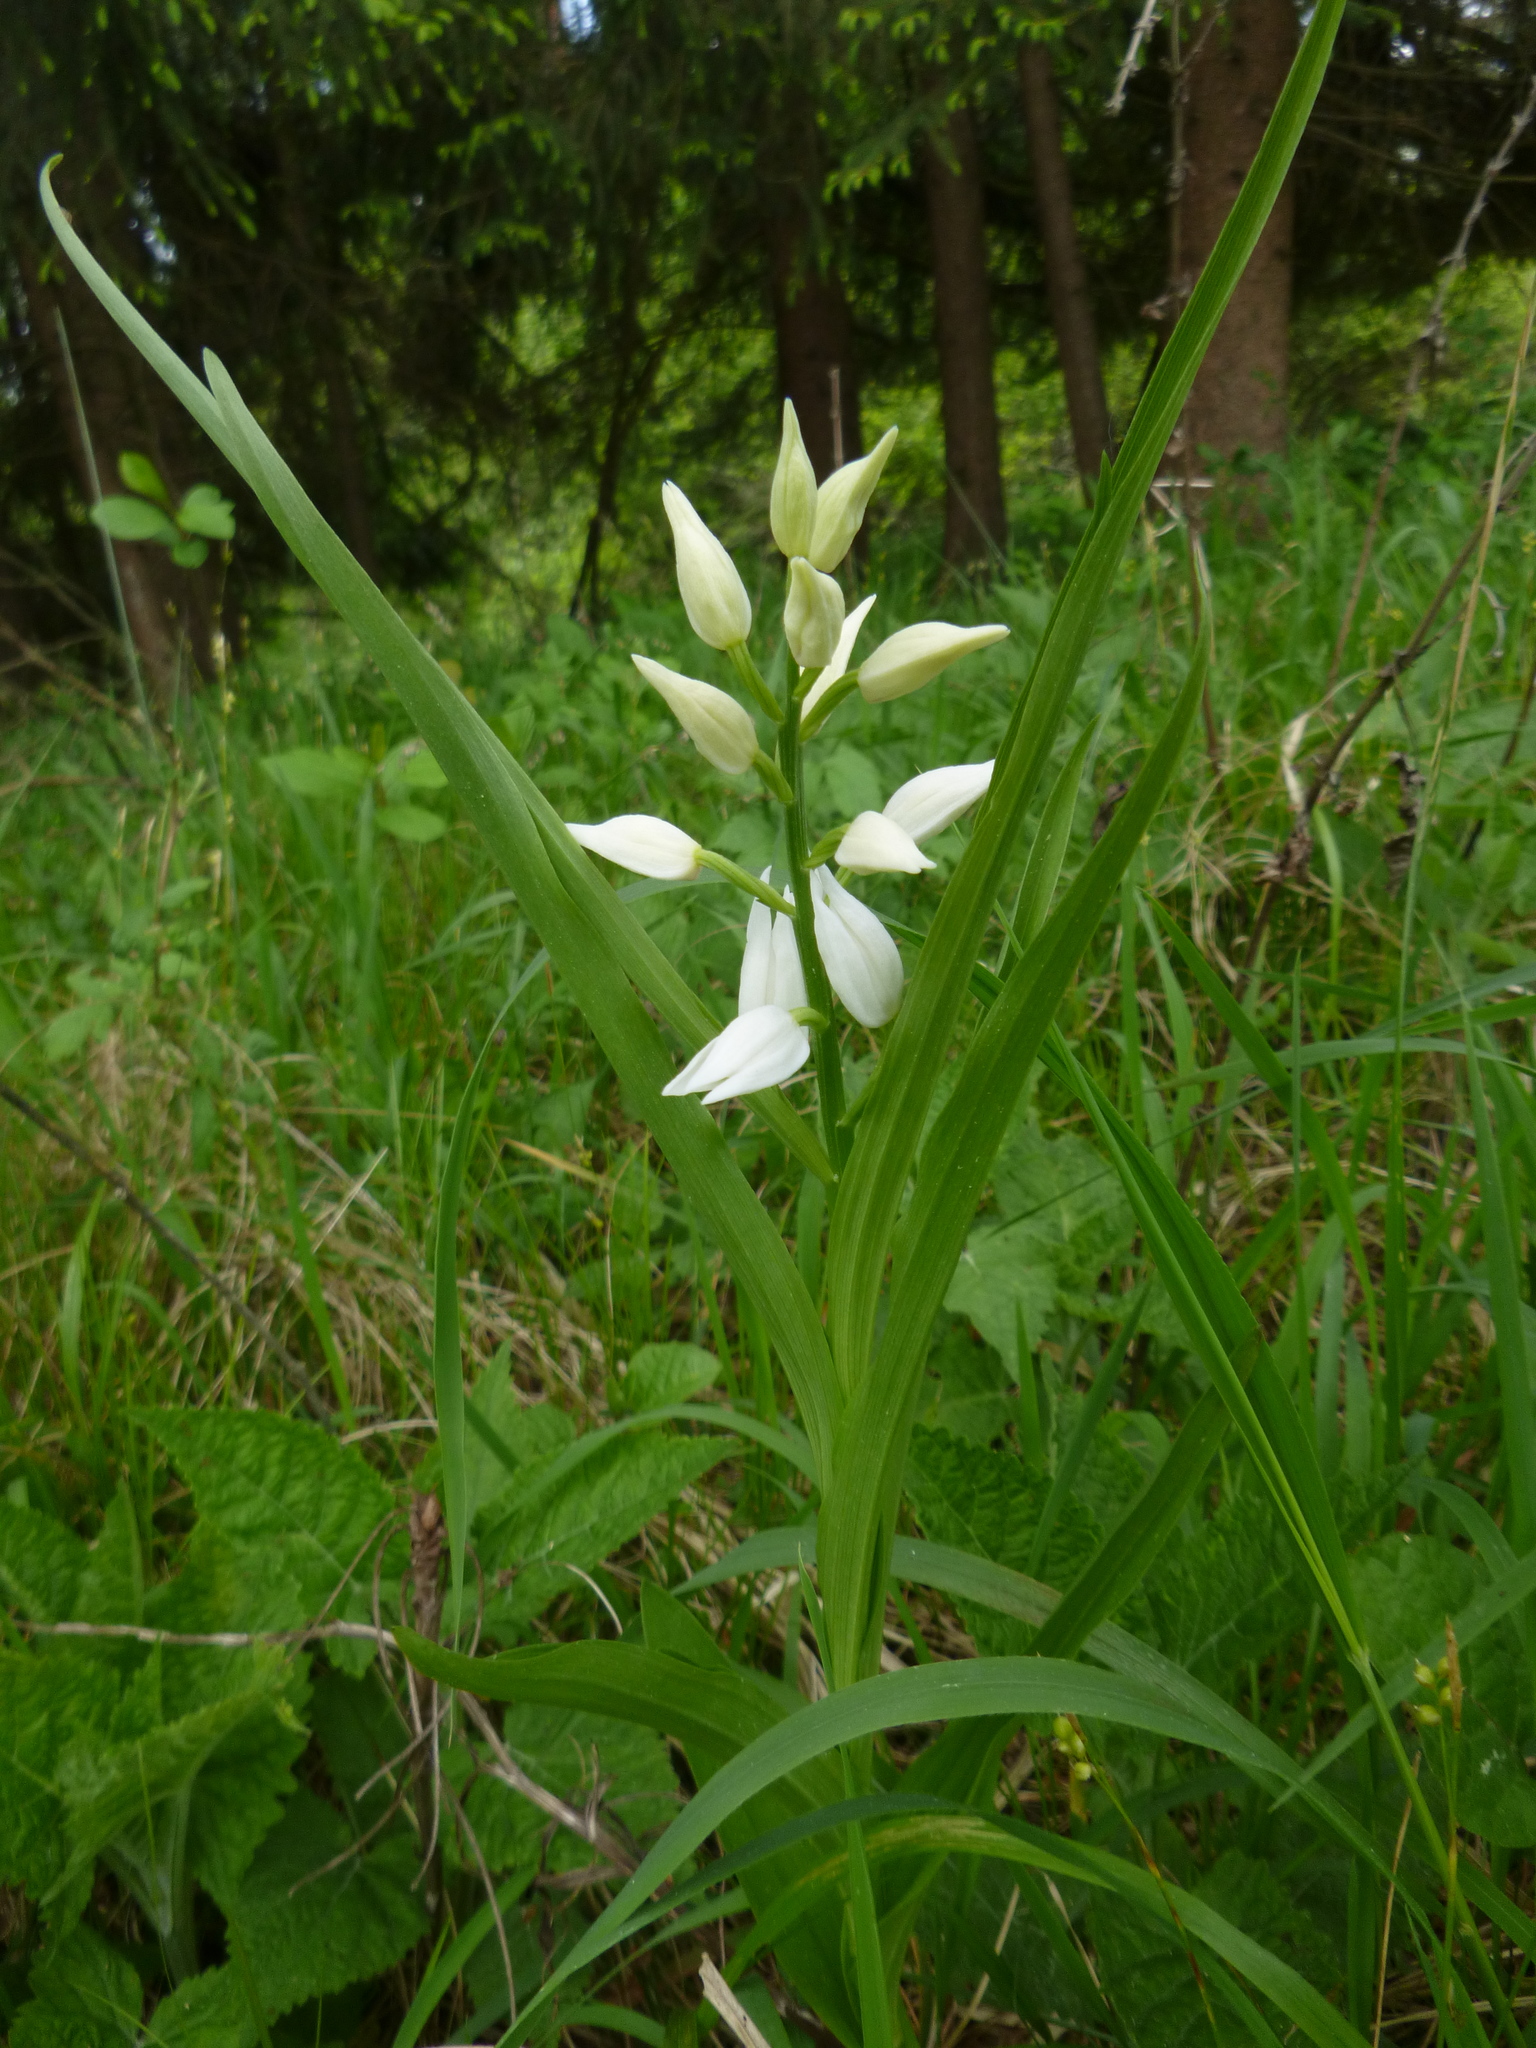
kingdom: Plantae
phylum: Tracheophyta
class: Liliopsida
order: Asparagales
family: Orchidaceae
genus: Cephalanthera
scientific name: Cephalanthera longifolia
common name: Narrow-leaved helleborine
